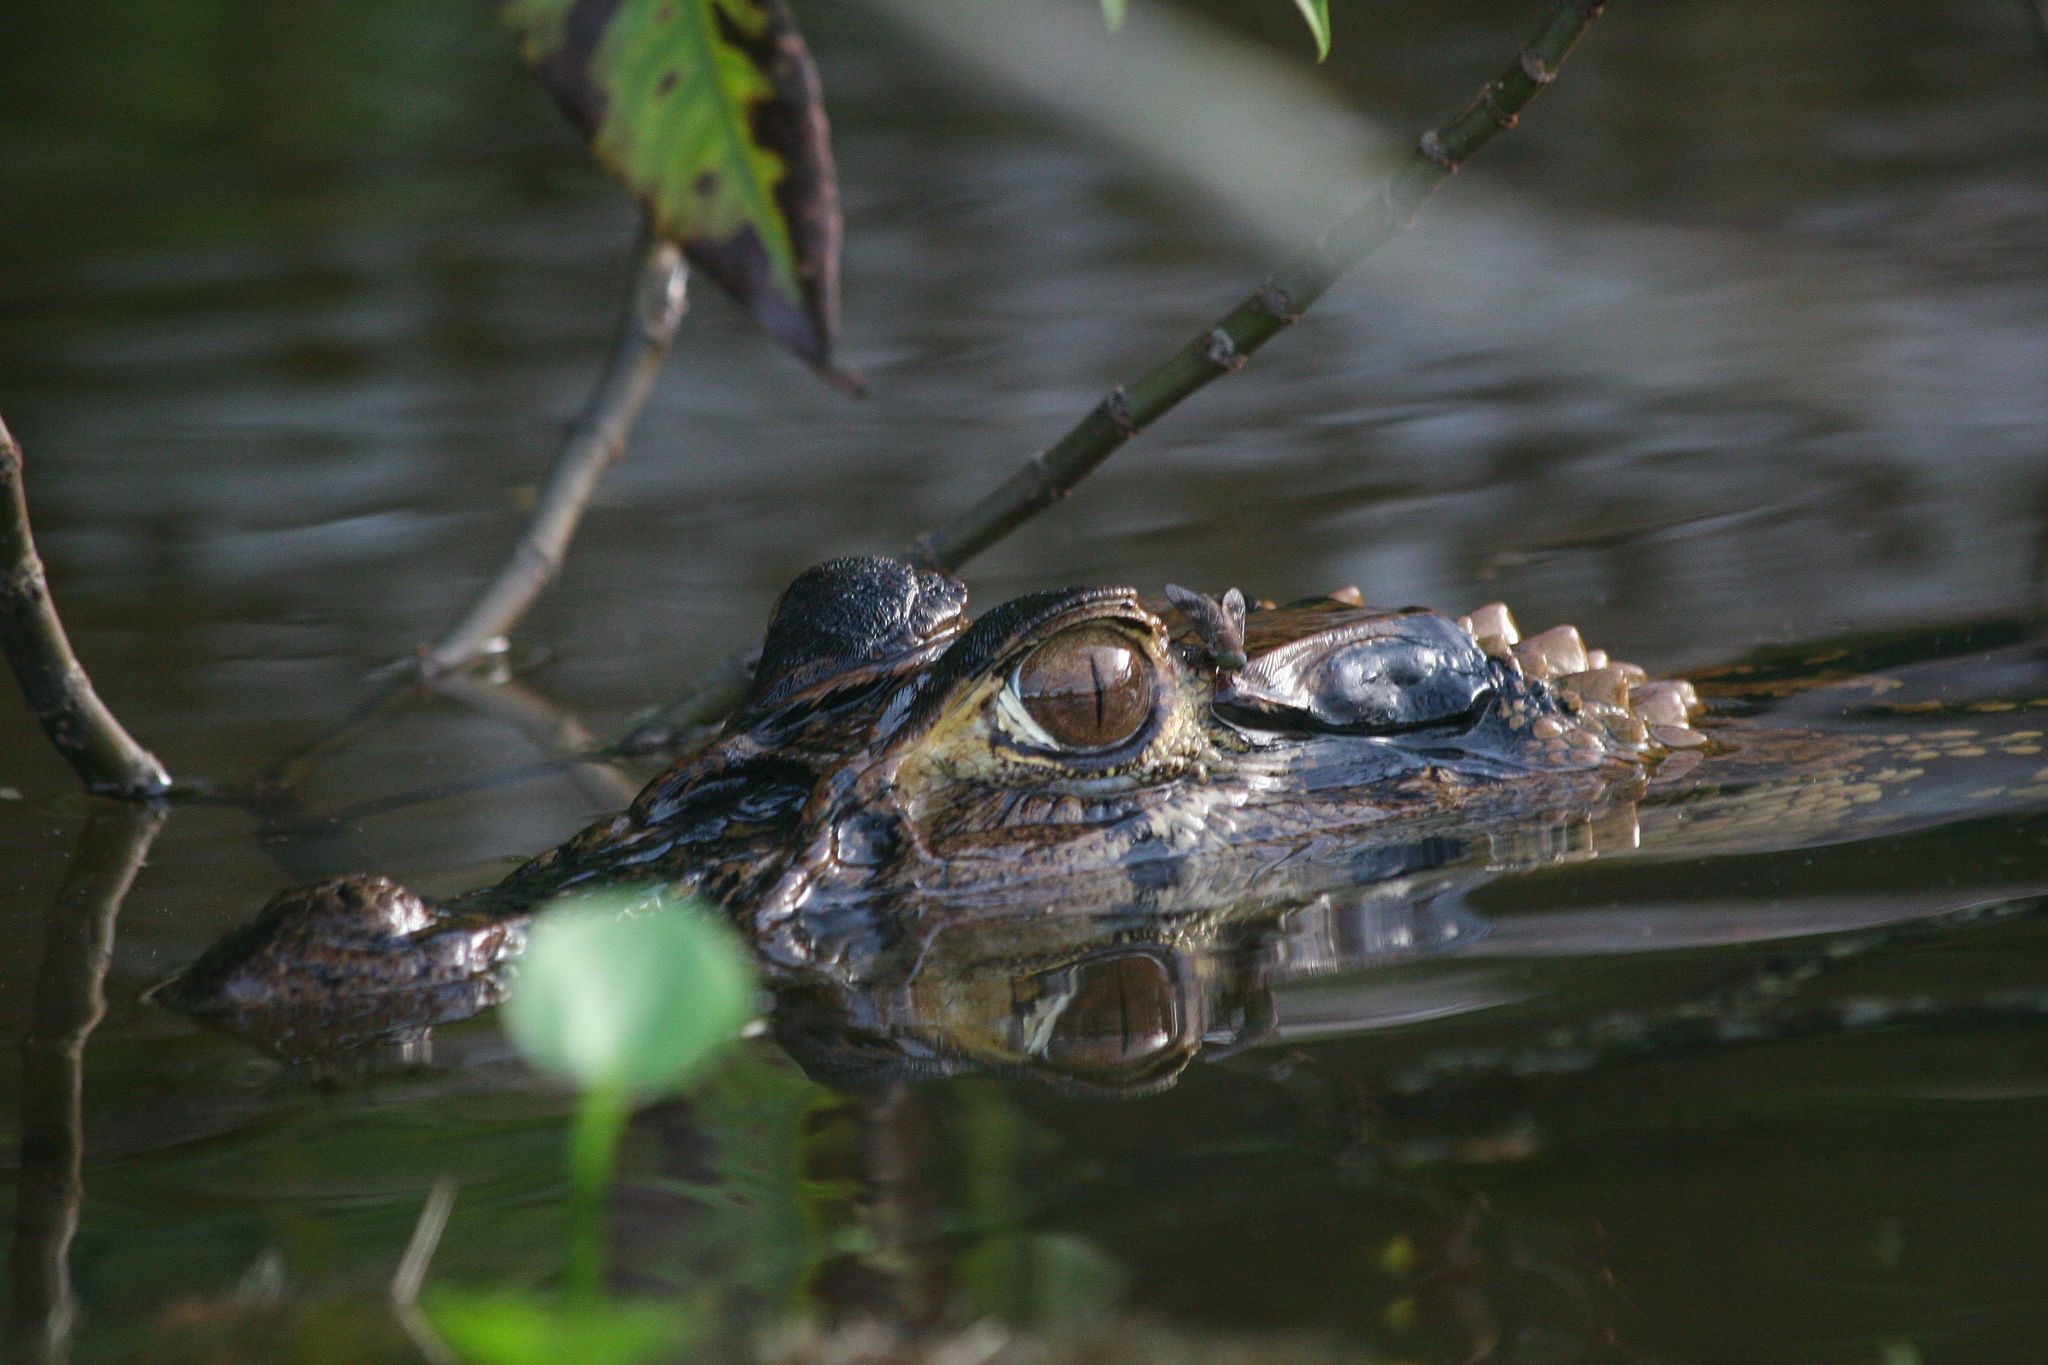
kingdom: Animalia
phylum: Chordata
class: Crocodylia
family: Alligatoridae
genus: Melanosuchus
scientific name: Melanosuchus niger
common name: Black caiman
